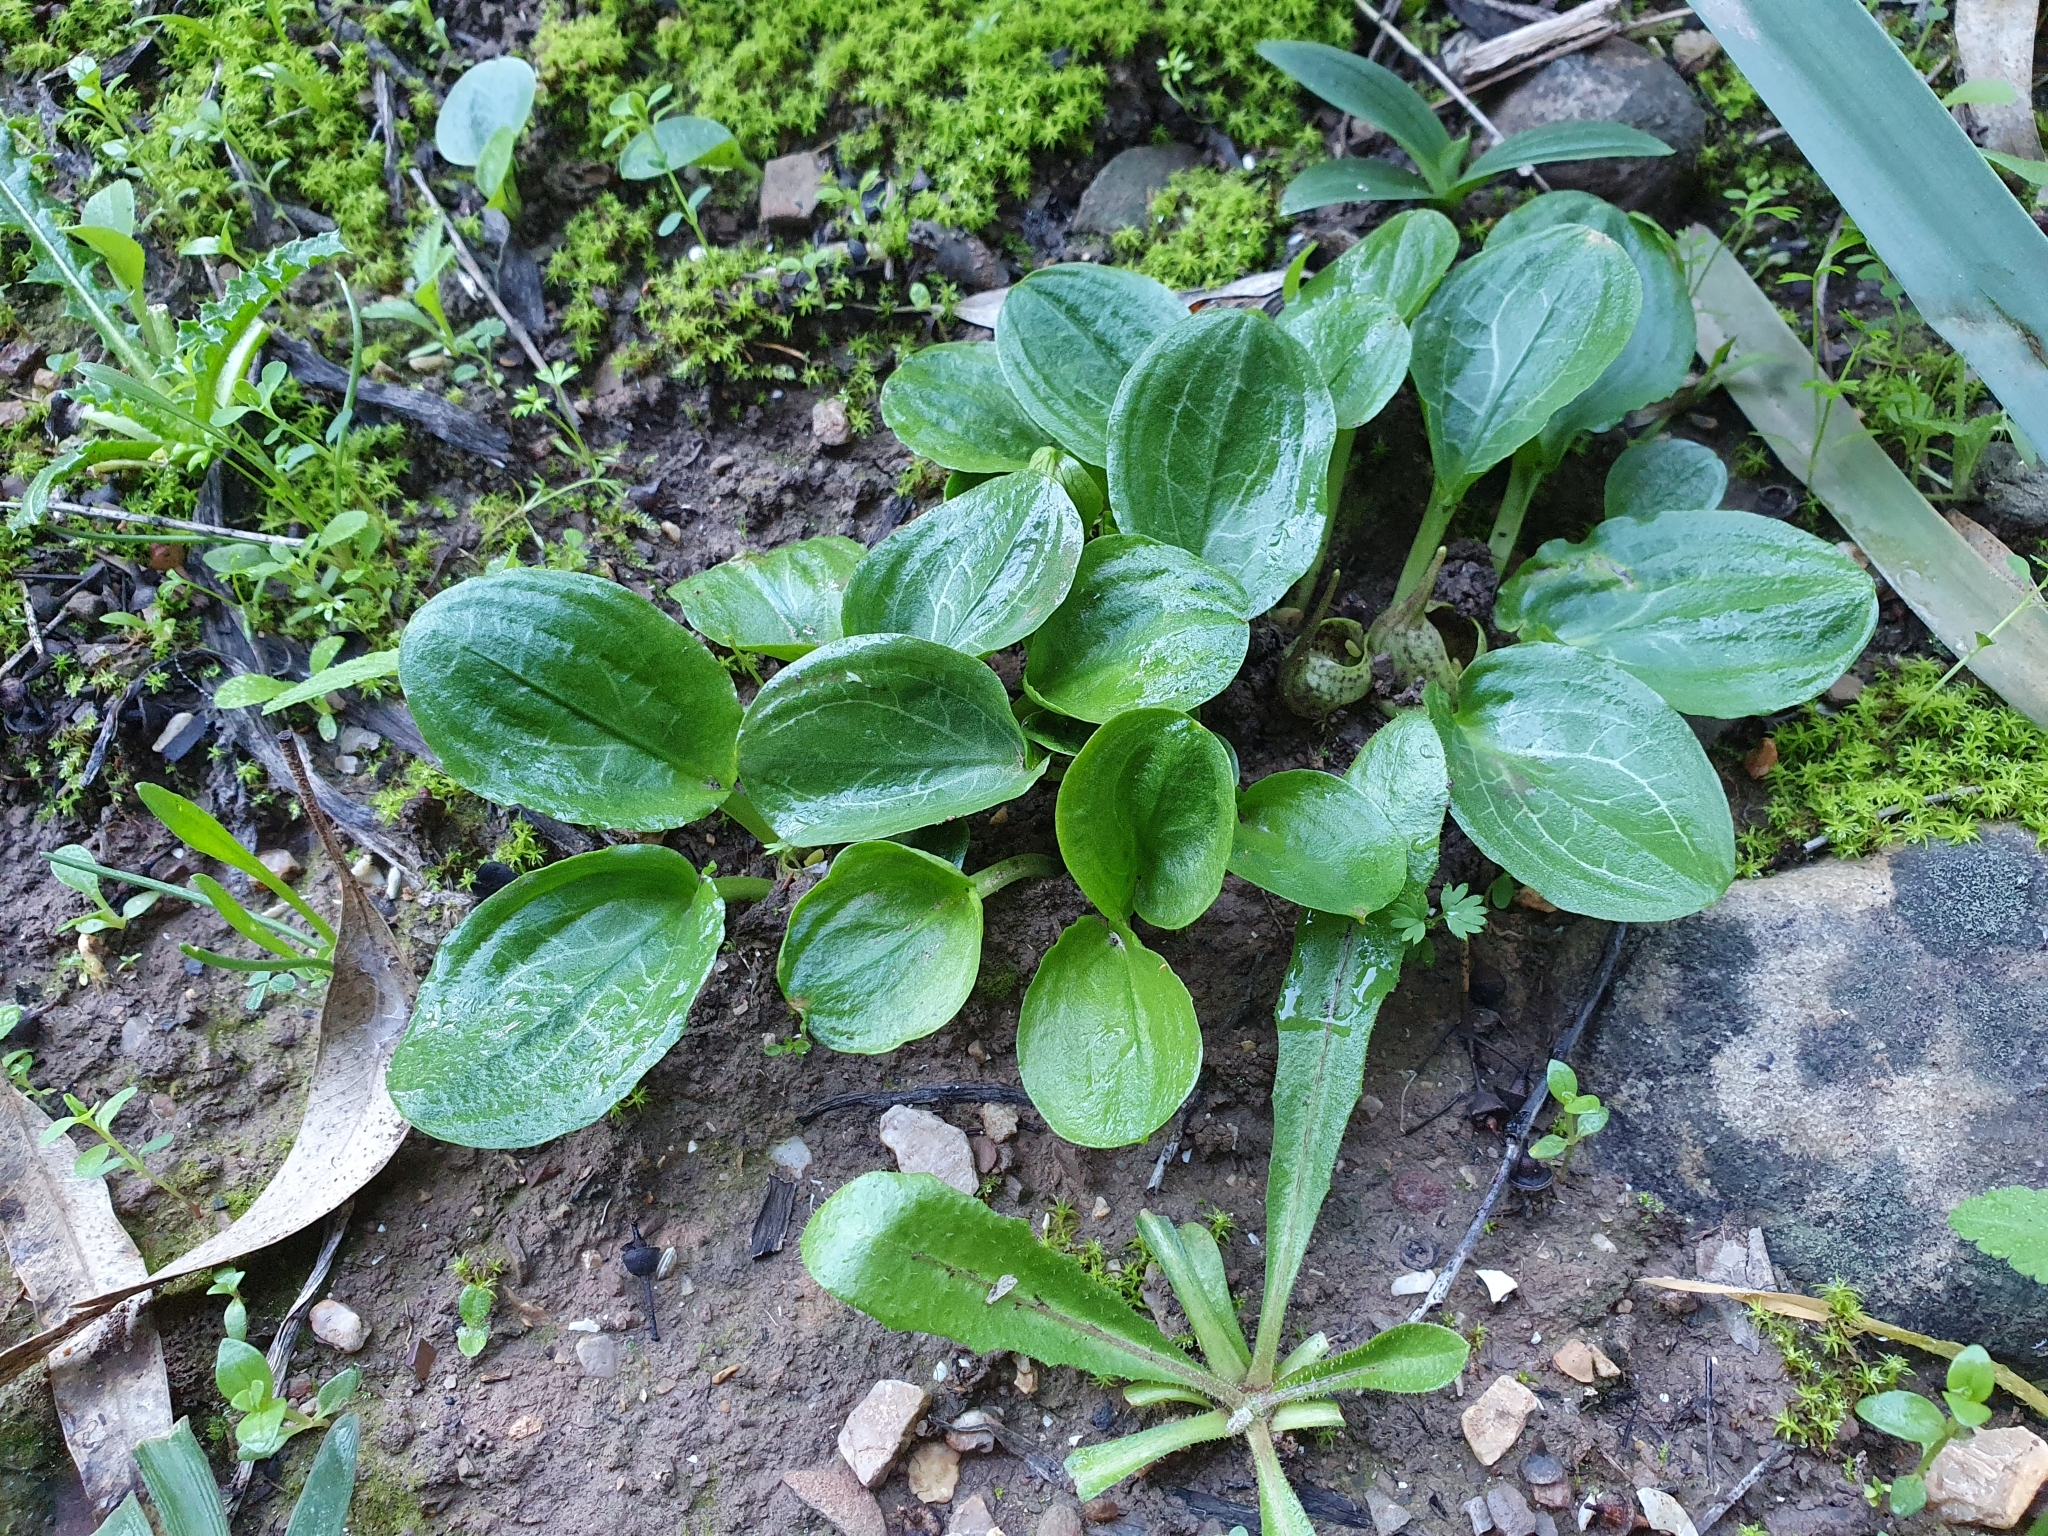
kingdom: Plantae
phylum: Tracheophyta
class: Liliopsida
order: Alismatales
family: Araceae
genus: Ambrosina
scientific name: Ambrosina bassii
